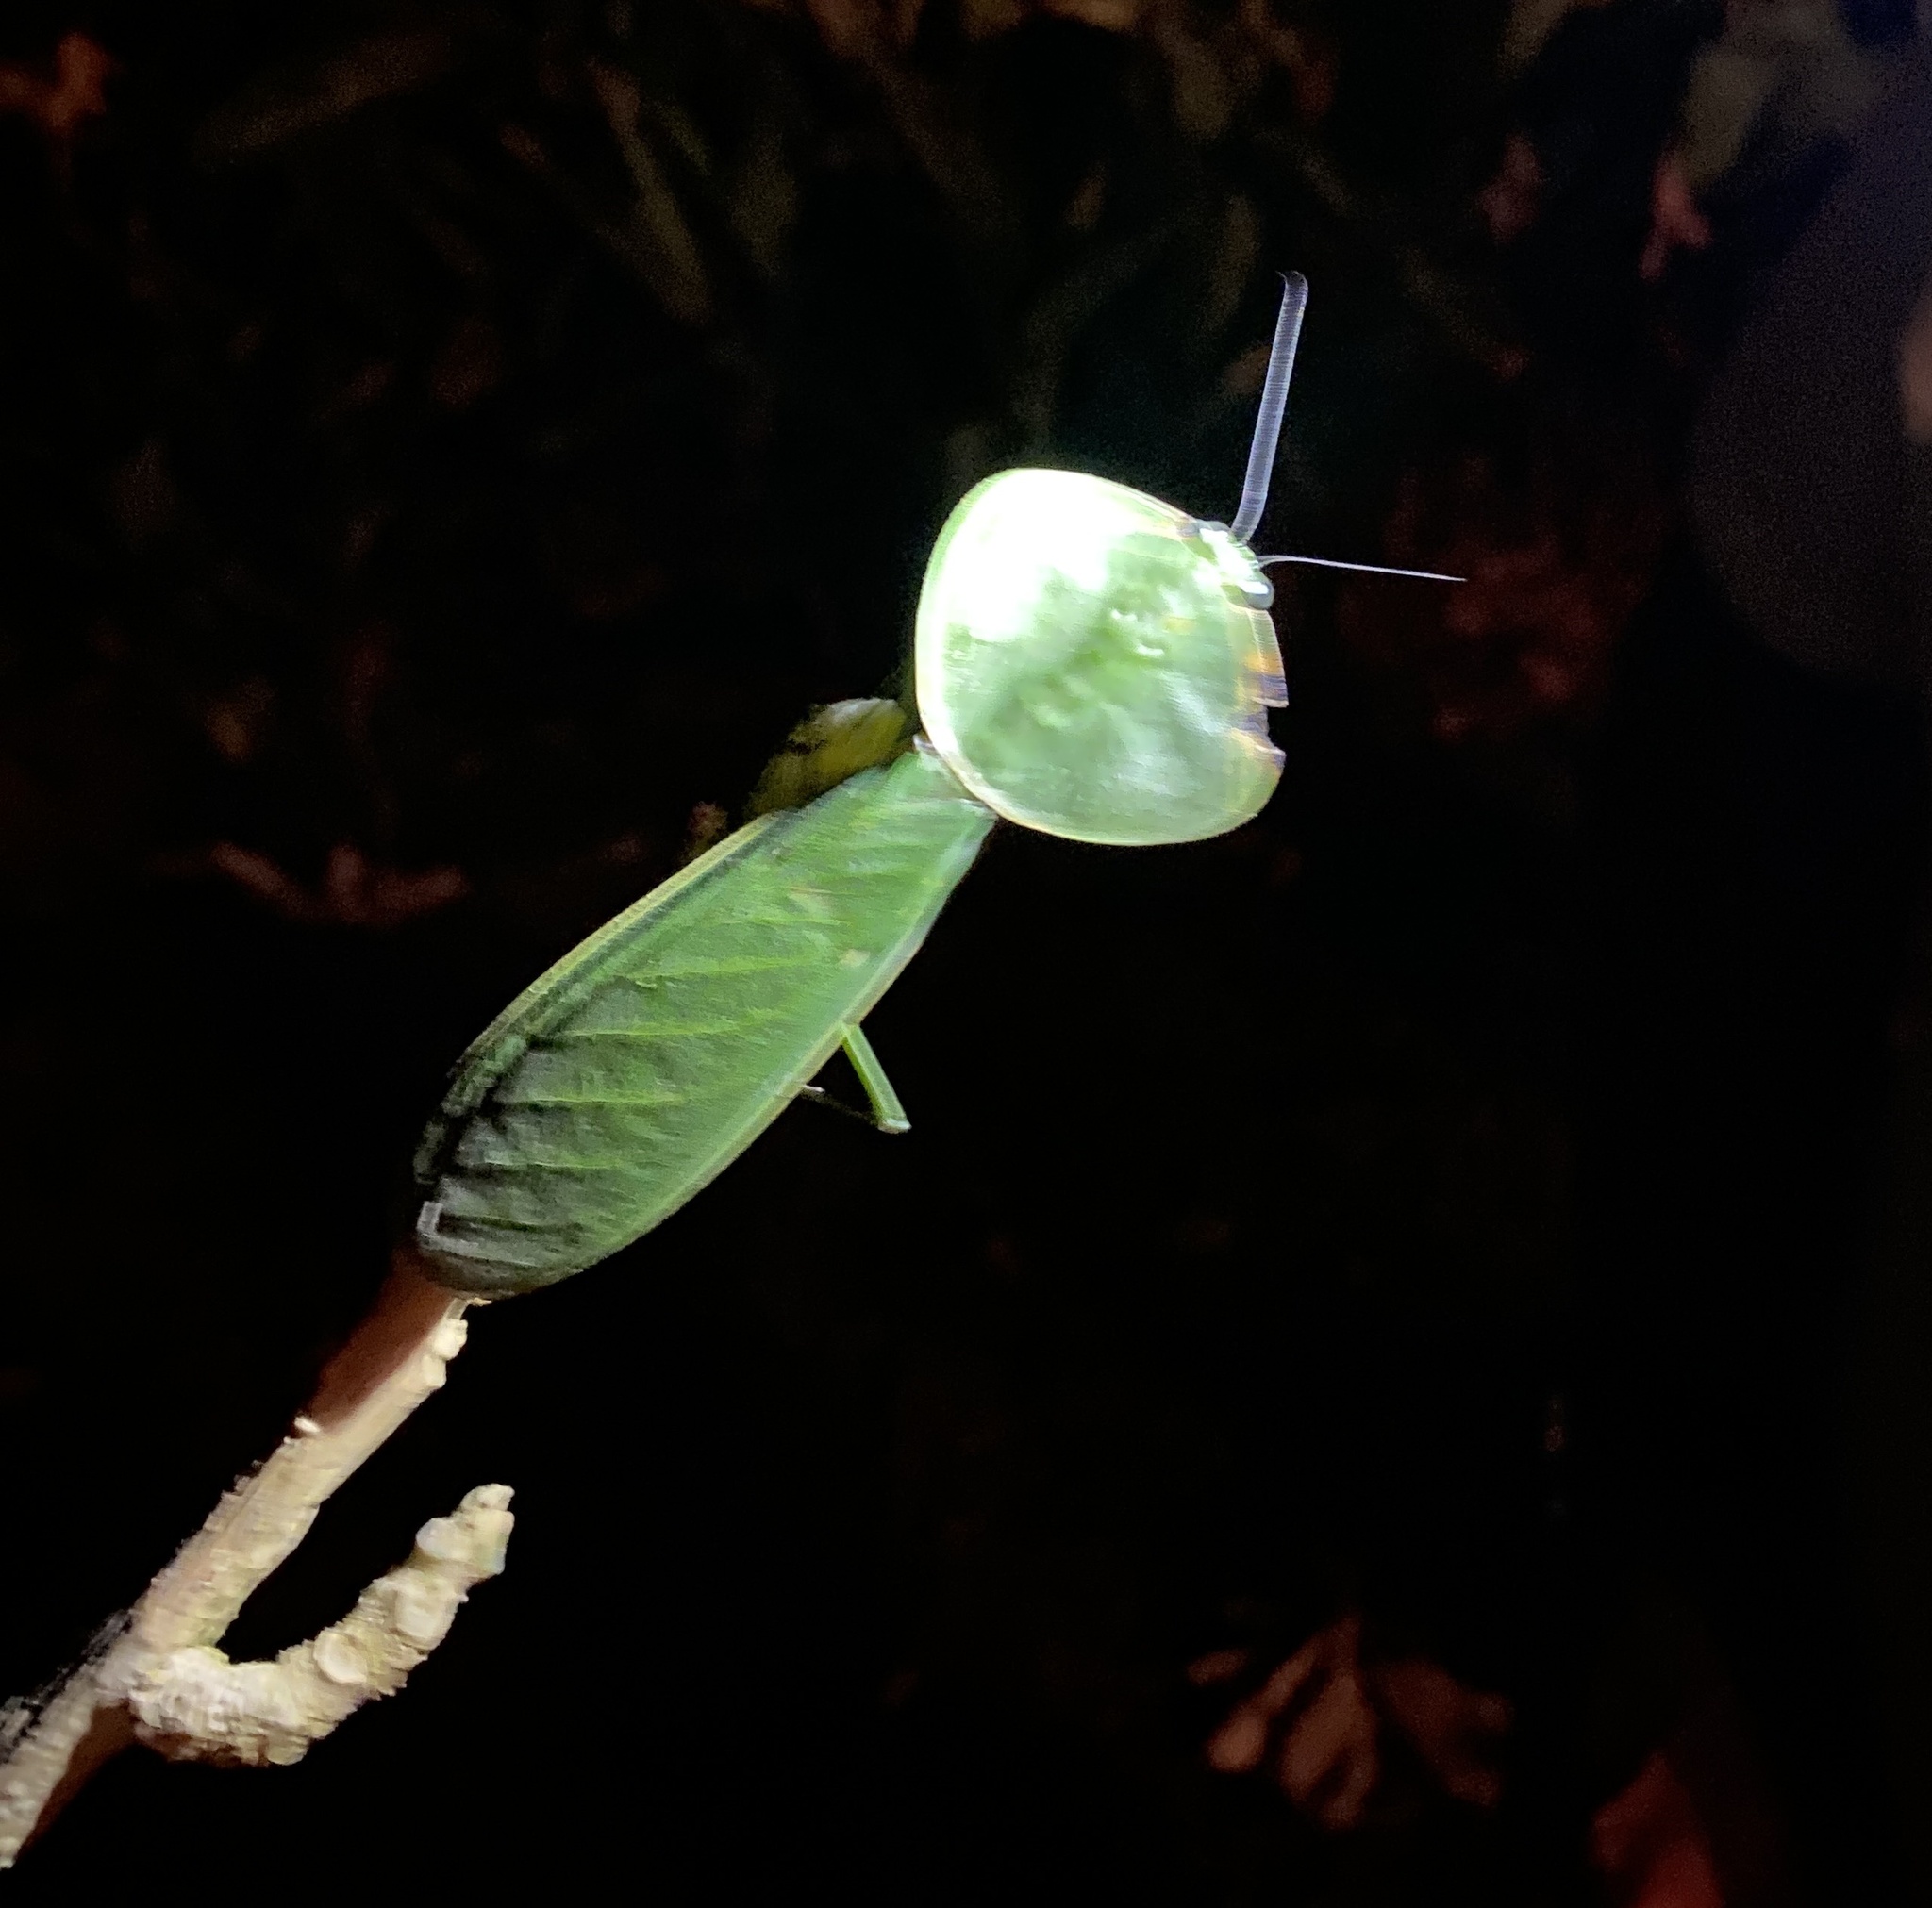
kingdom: Animalia
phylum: Arthropoda
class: Insecta
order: Mantodea
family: Mantidae
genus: Choeradodis
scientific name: Choeradodis rhombicollis
